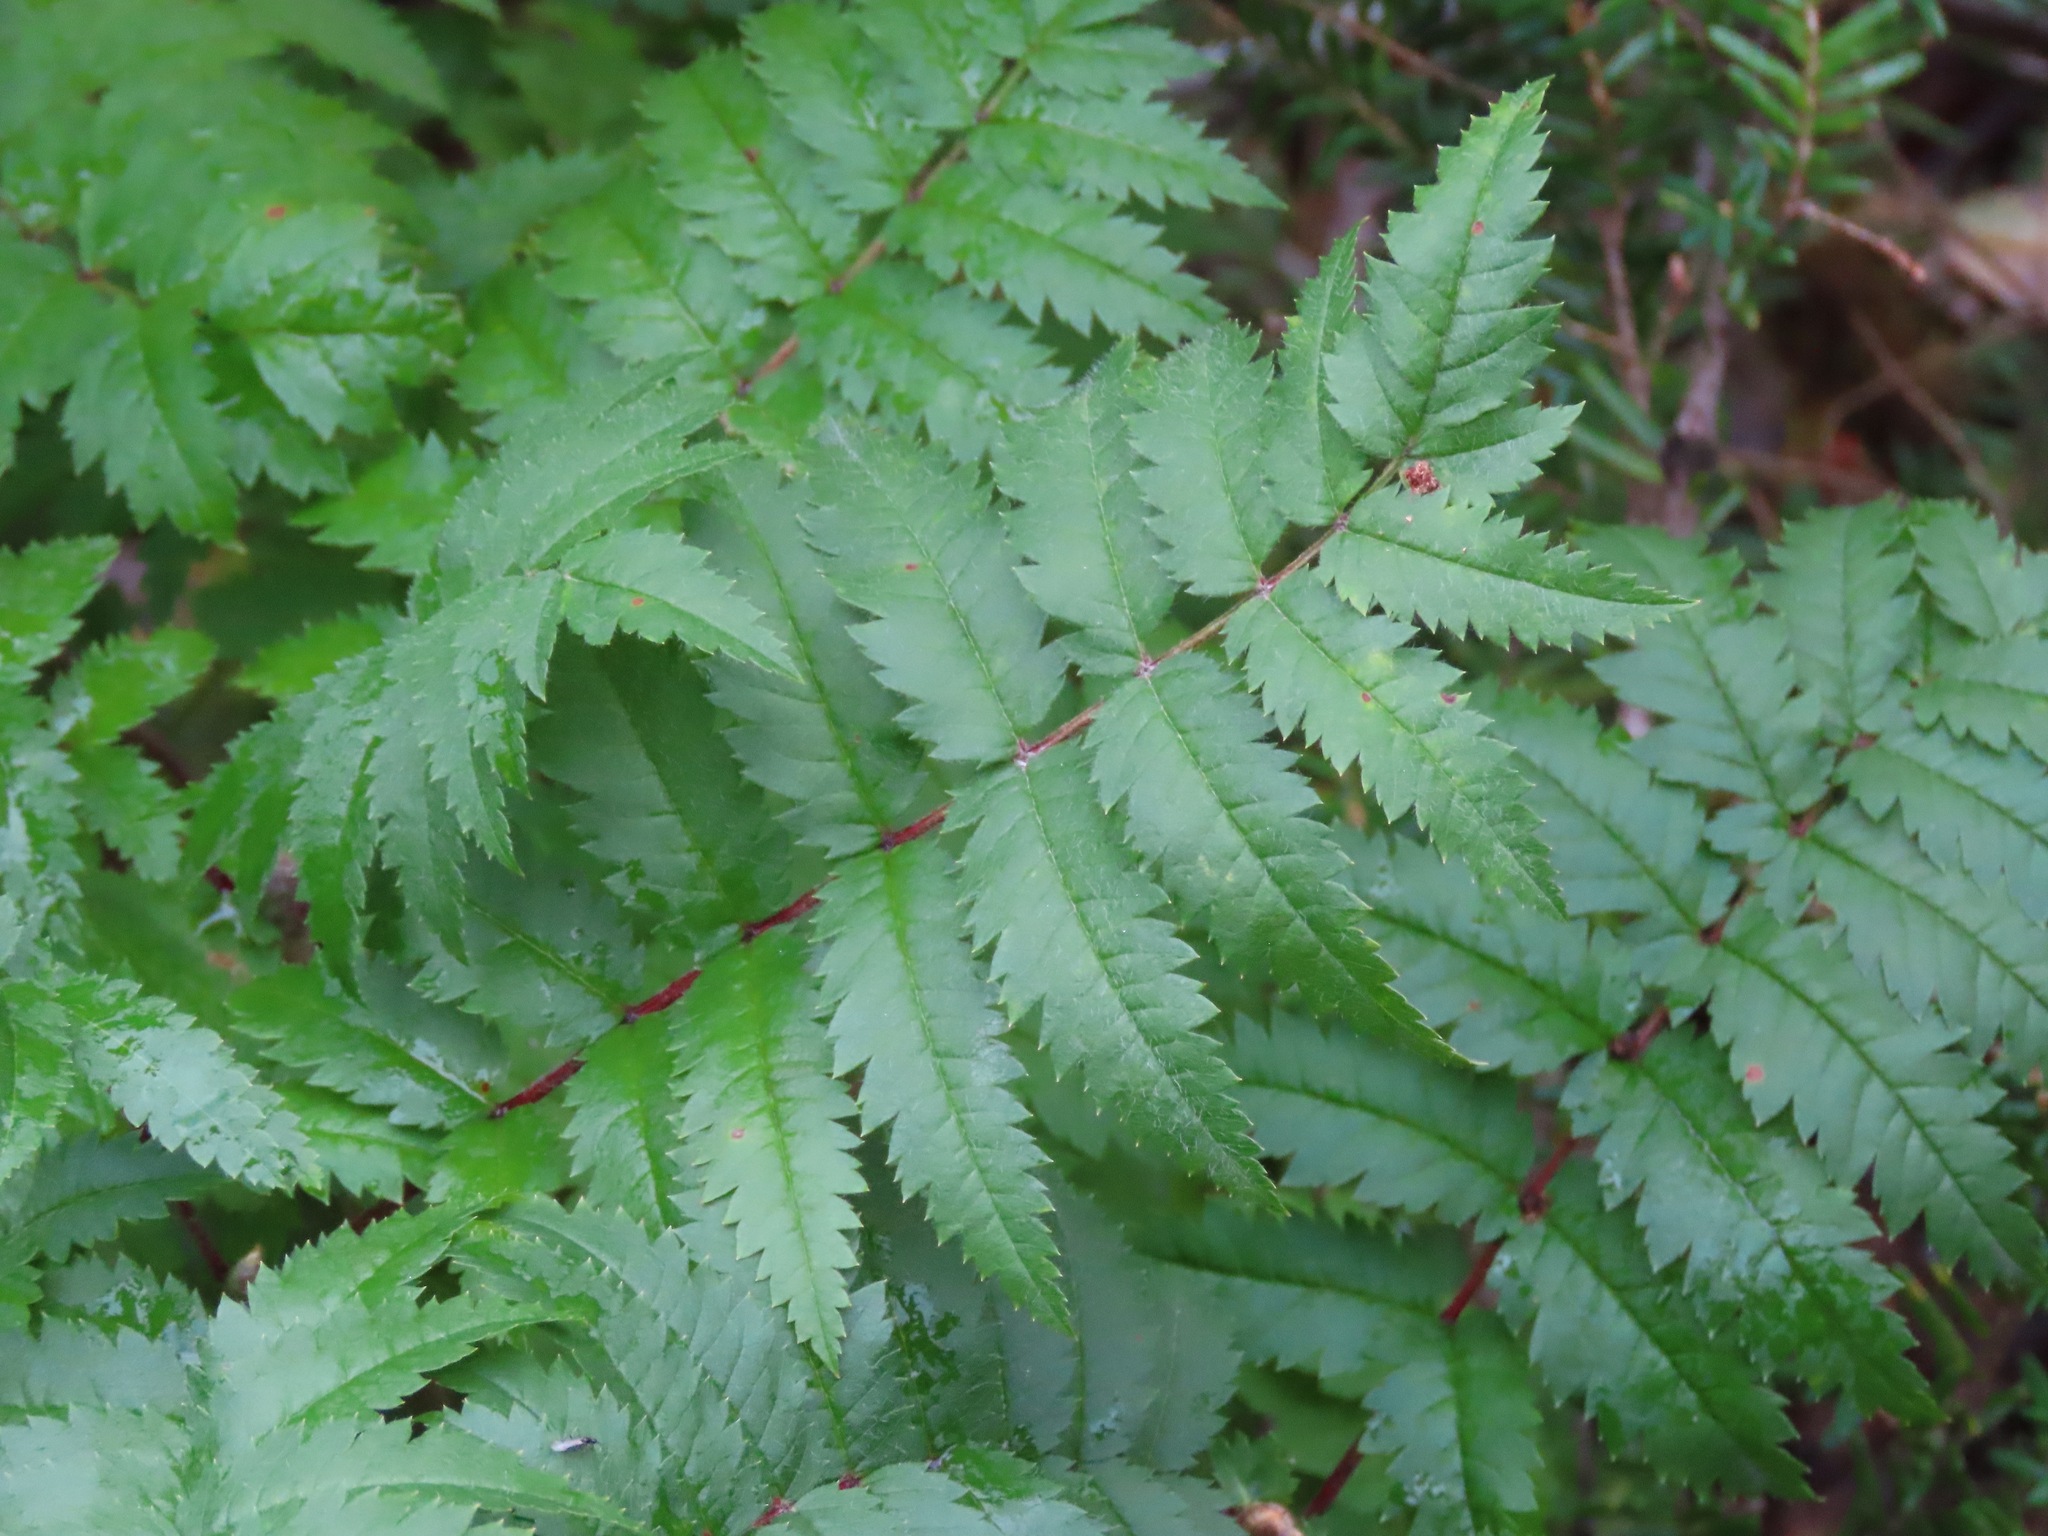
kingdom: Plantae
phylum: Tracheophyta
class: Magnoliopsida
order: Rosales
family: Rosaceae
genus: Sorbus
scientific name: Sorbus aucuparia
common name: Rowan
